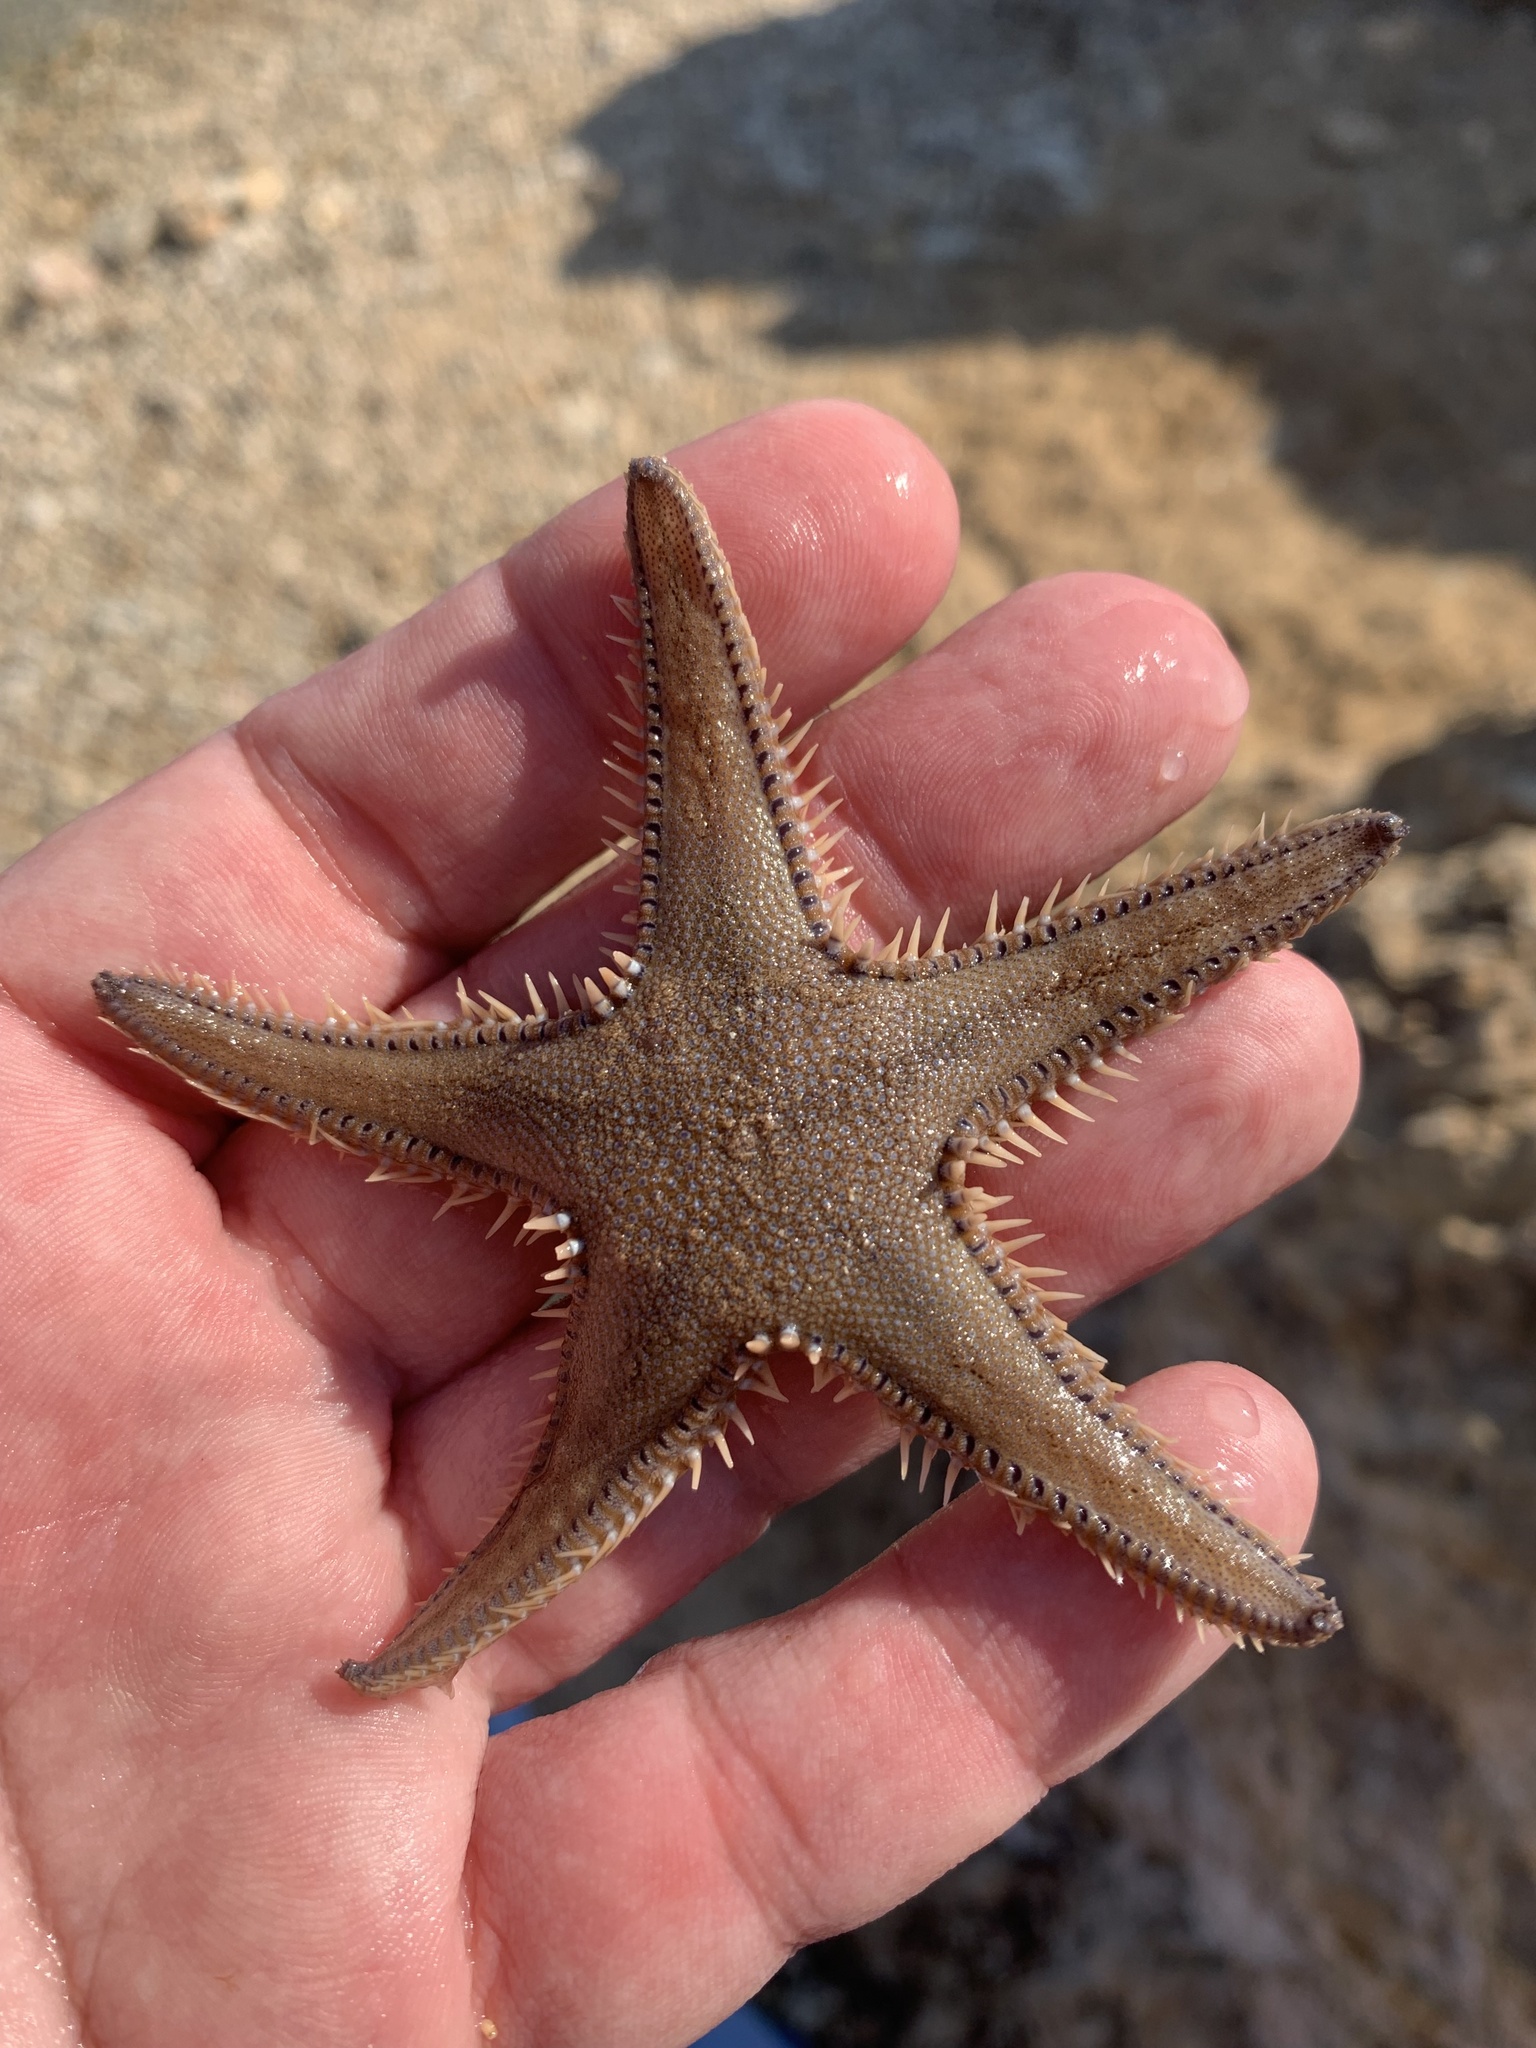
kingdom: Animalia
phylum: Echinodermata
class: Asteroidea
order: Paxillosida
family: Astropectinidae
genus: Astropecten
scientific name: Astropecten platyacanthus
